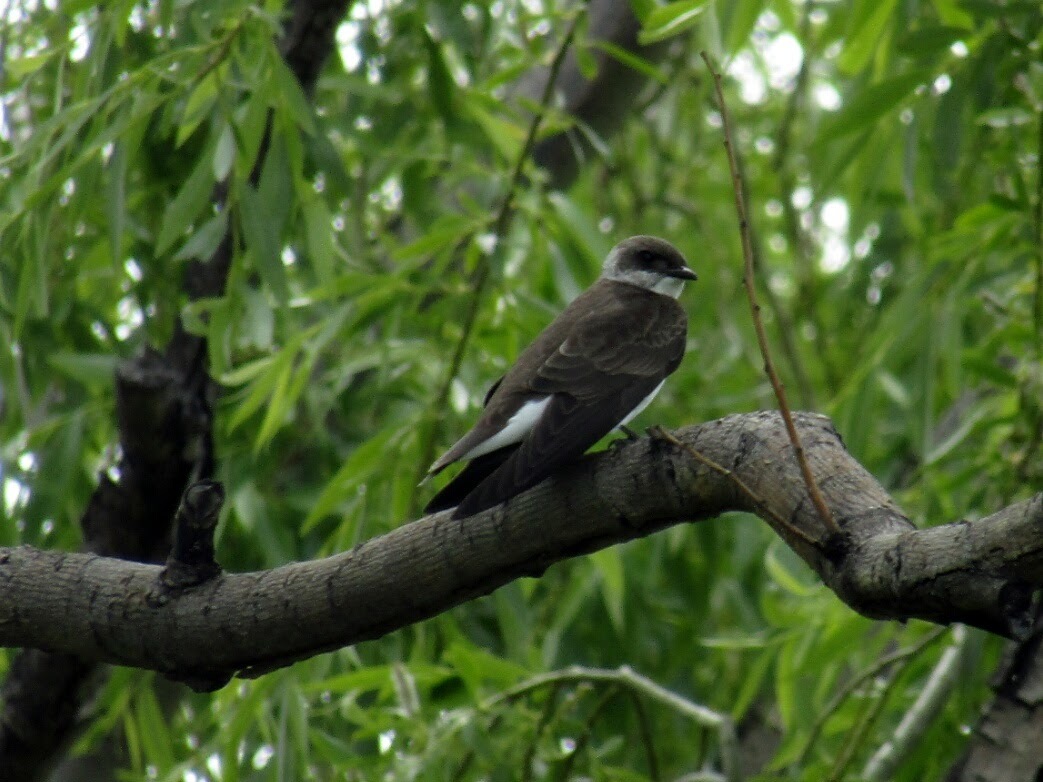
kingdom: Animalia
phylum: Chordata
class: Aves
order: Passeriformes
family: Hirundinidae
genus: Progne
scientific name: Progne tapera
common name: Brown-chested martin
